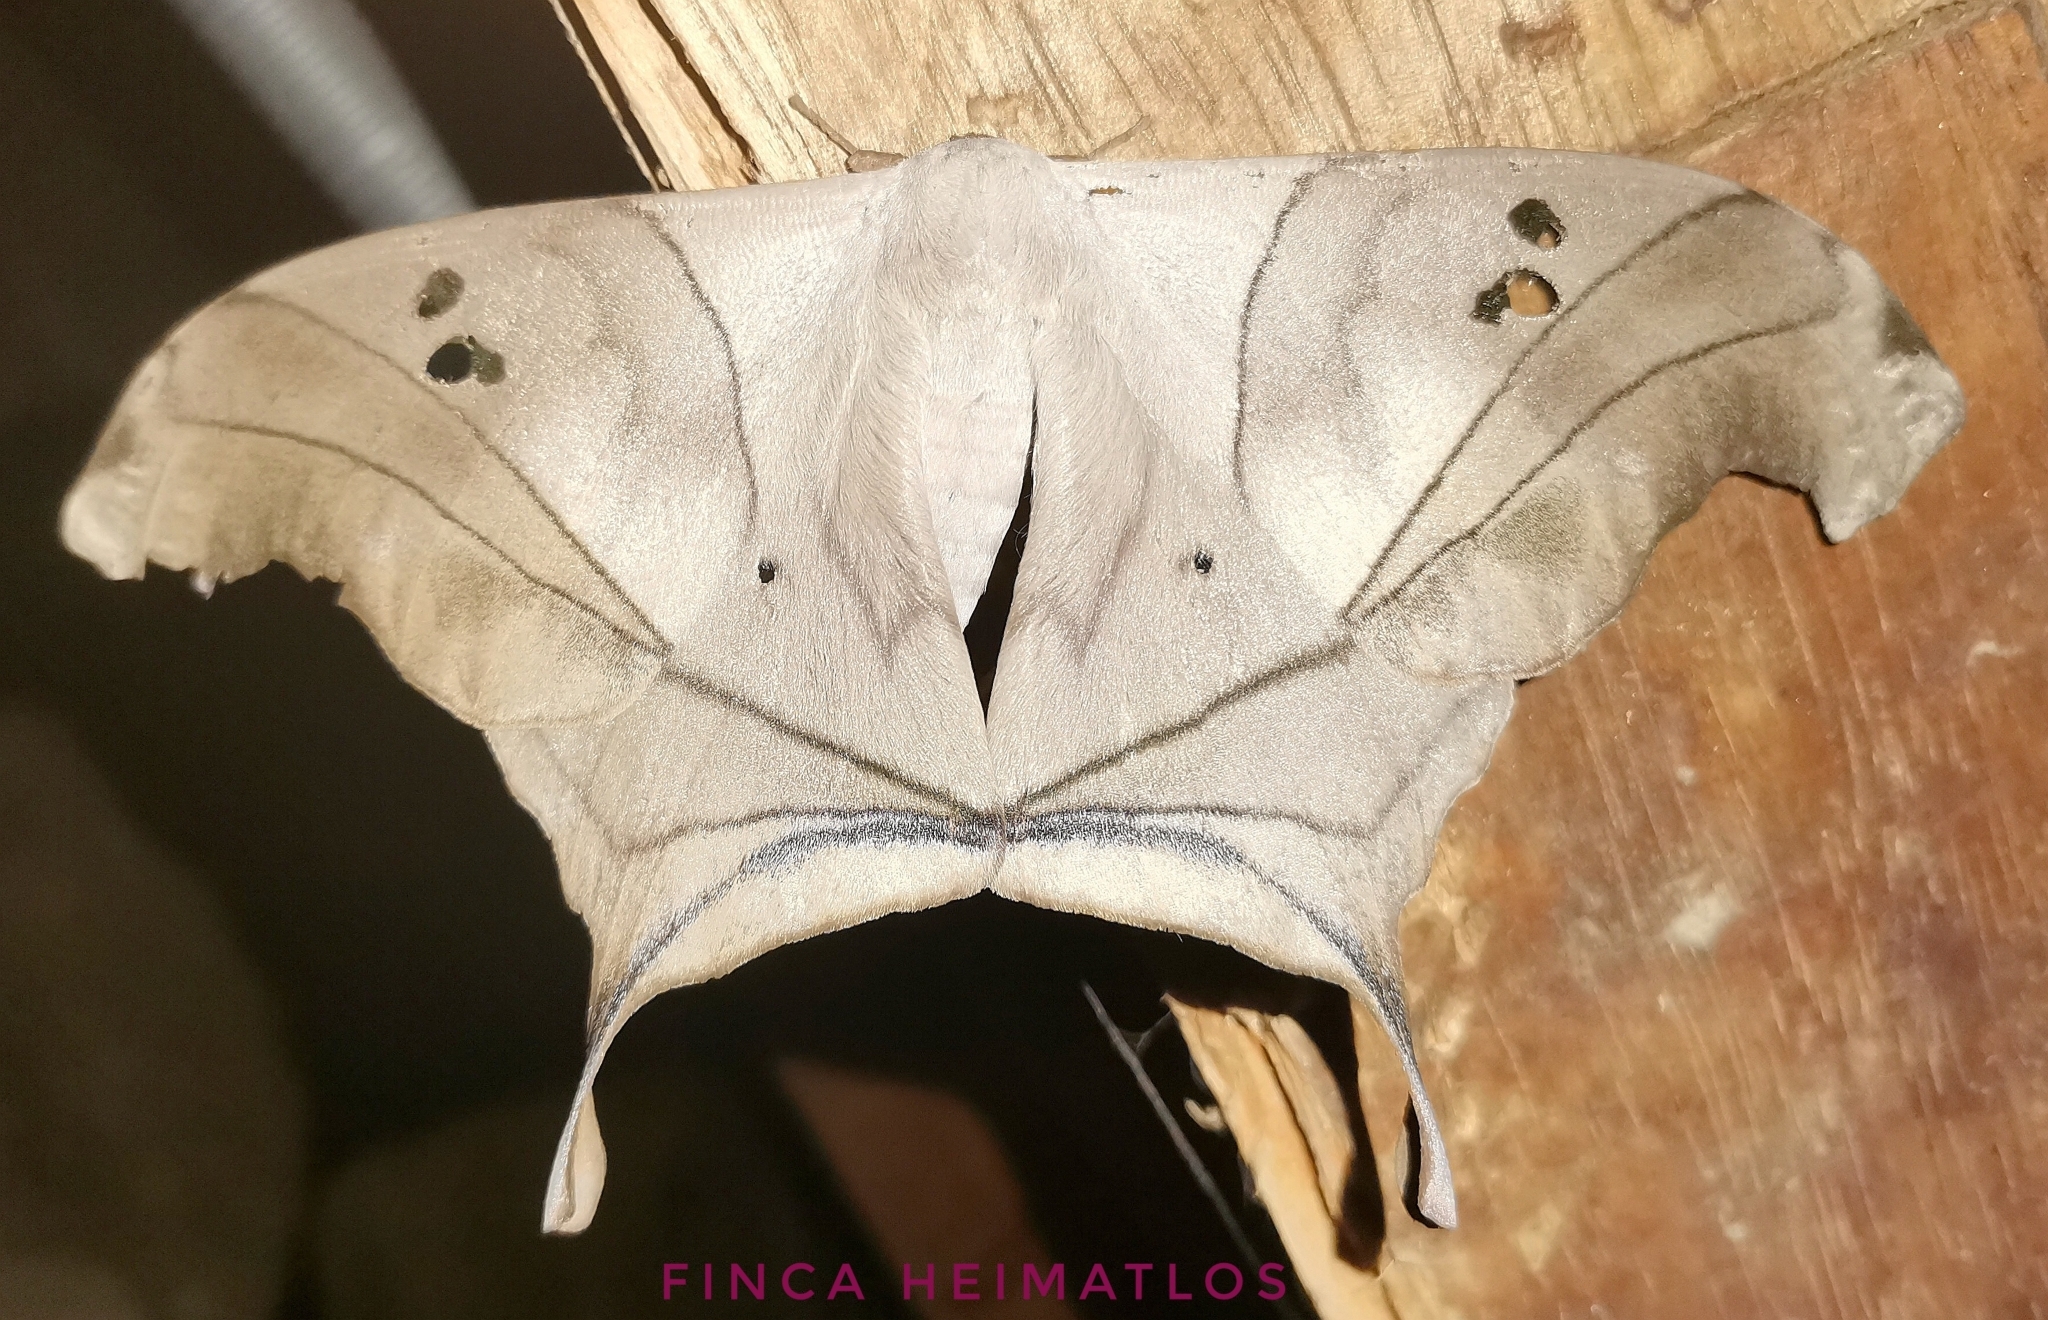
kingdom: Animalia
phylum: Arthropoda
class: Insecta
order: Lepidoptera
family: Saturniidae
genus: Dysdaemonia
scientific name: Dysdaemonia australoboreas
